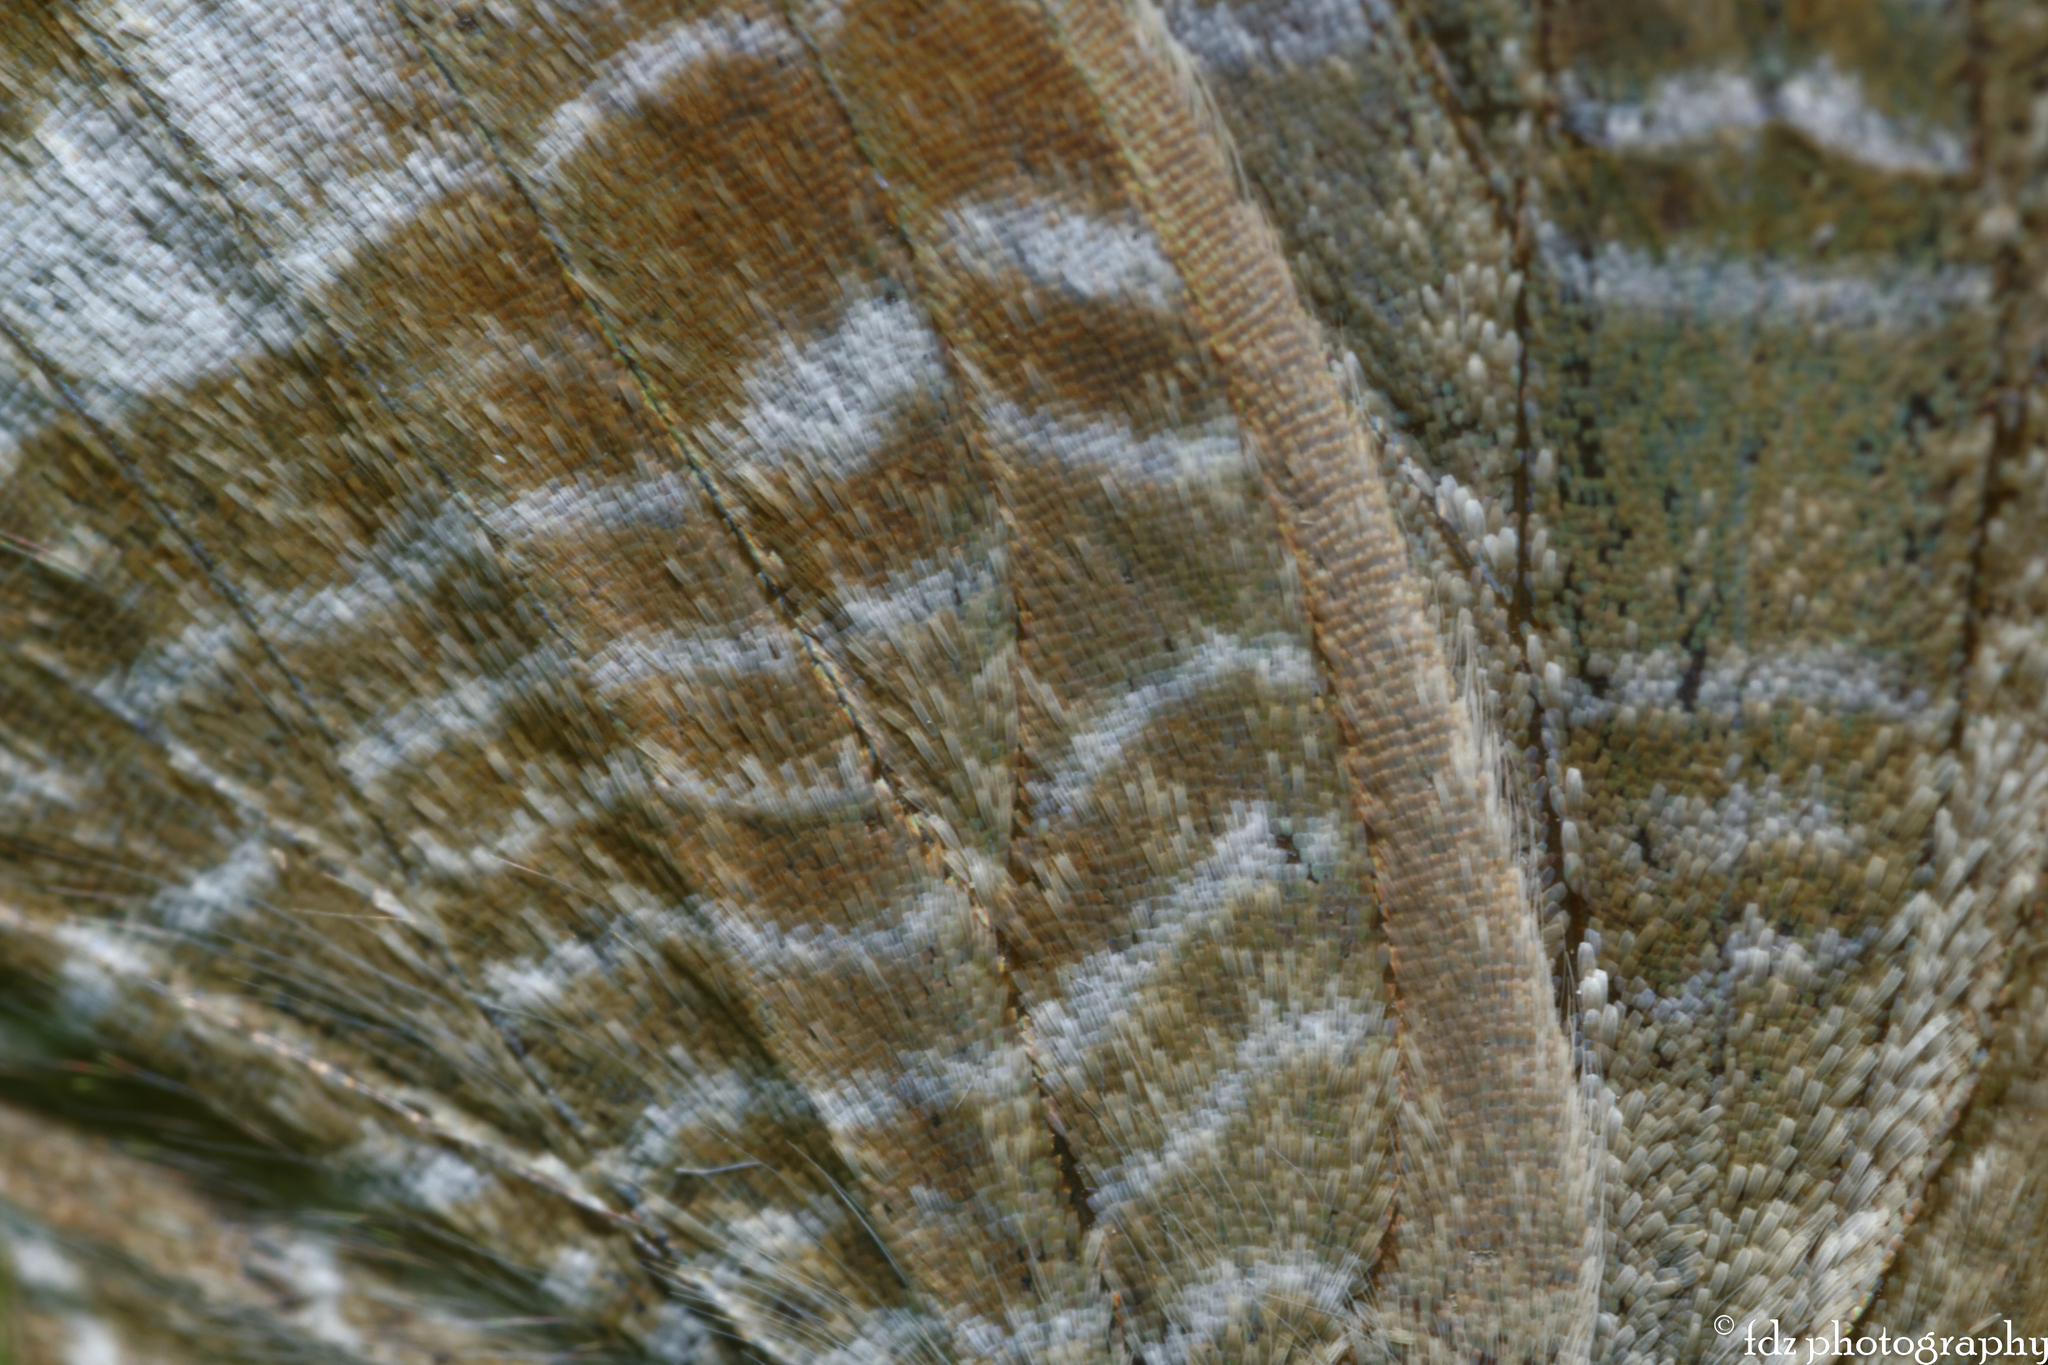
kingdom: Animalia
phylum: Arthropoda
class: Insecta
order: Lepidoptera
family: Lycaenidae
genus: Lampides
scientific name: Lampides boeticus
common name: Long-tailed blue
